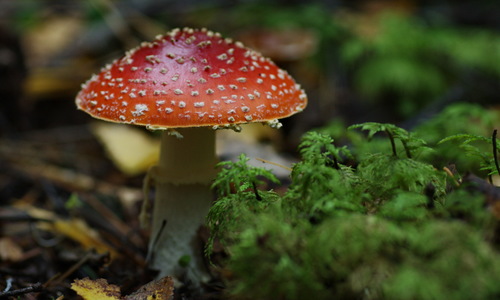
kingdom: Fungi
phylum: Basidiomycota
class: Agaricomycetes
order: Agaricales
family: Amanitaceae
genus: Amanita
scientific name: Amanita muscaria
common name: Fly agaric
